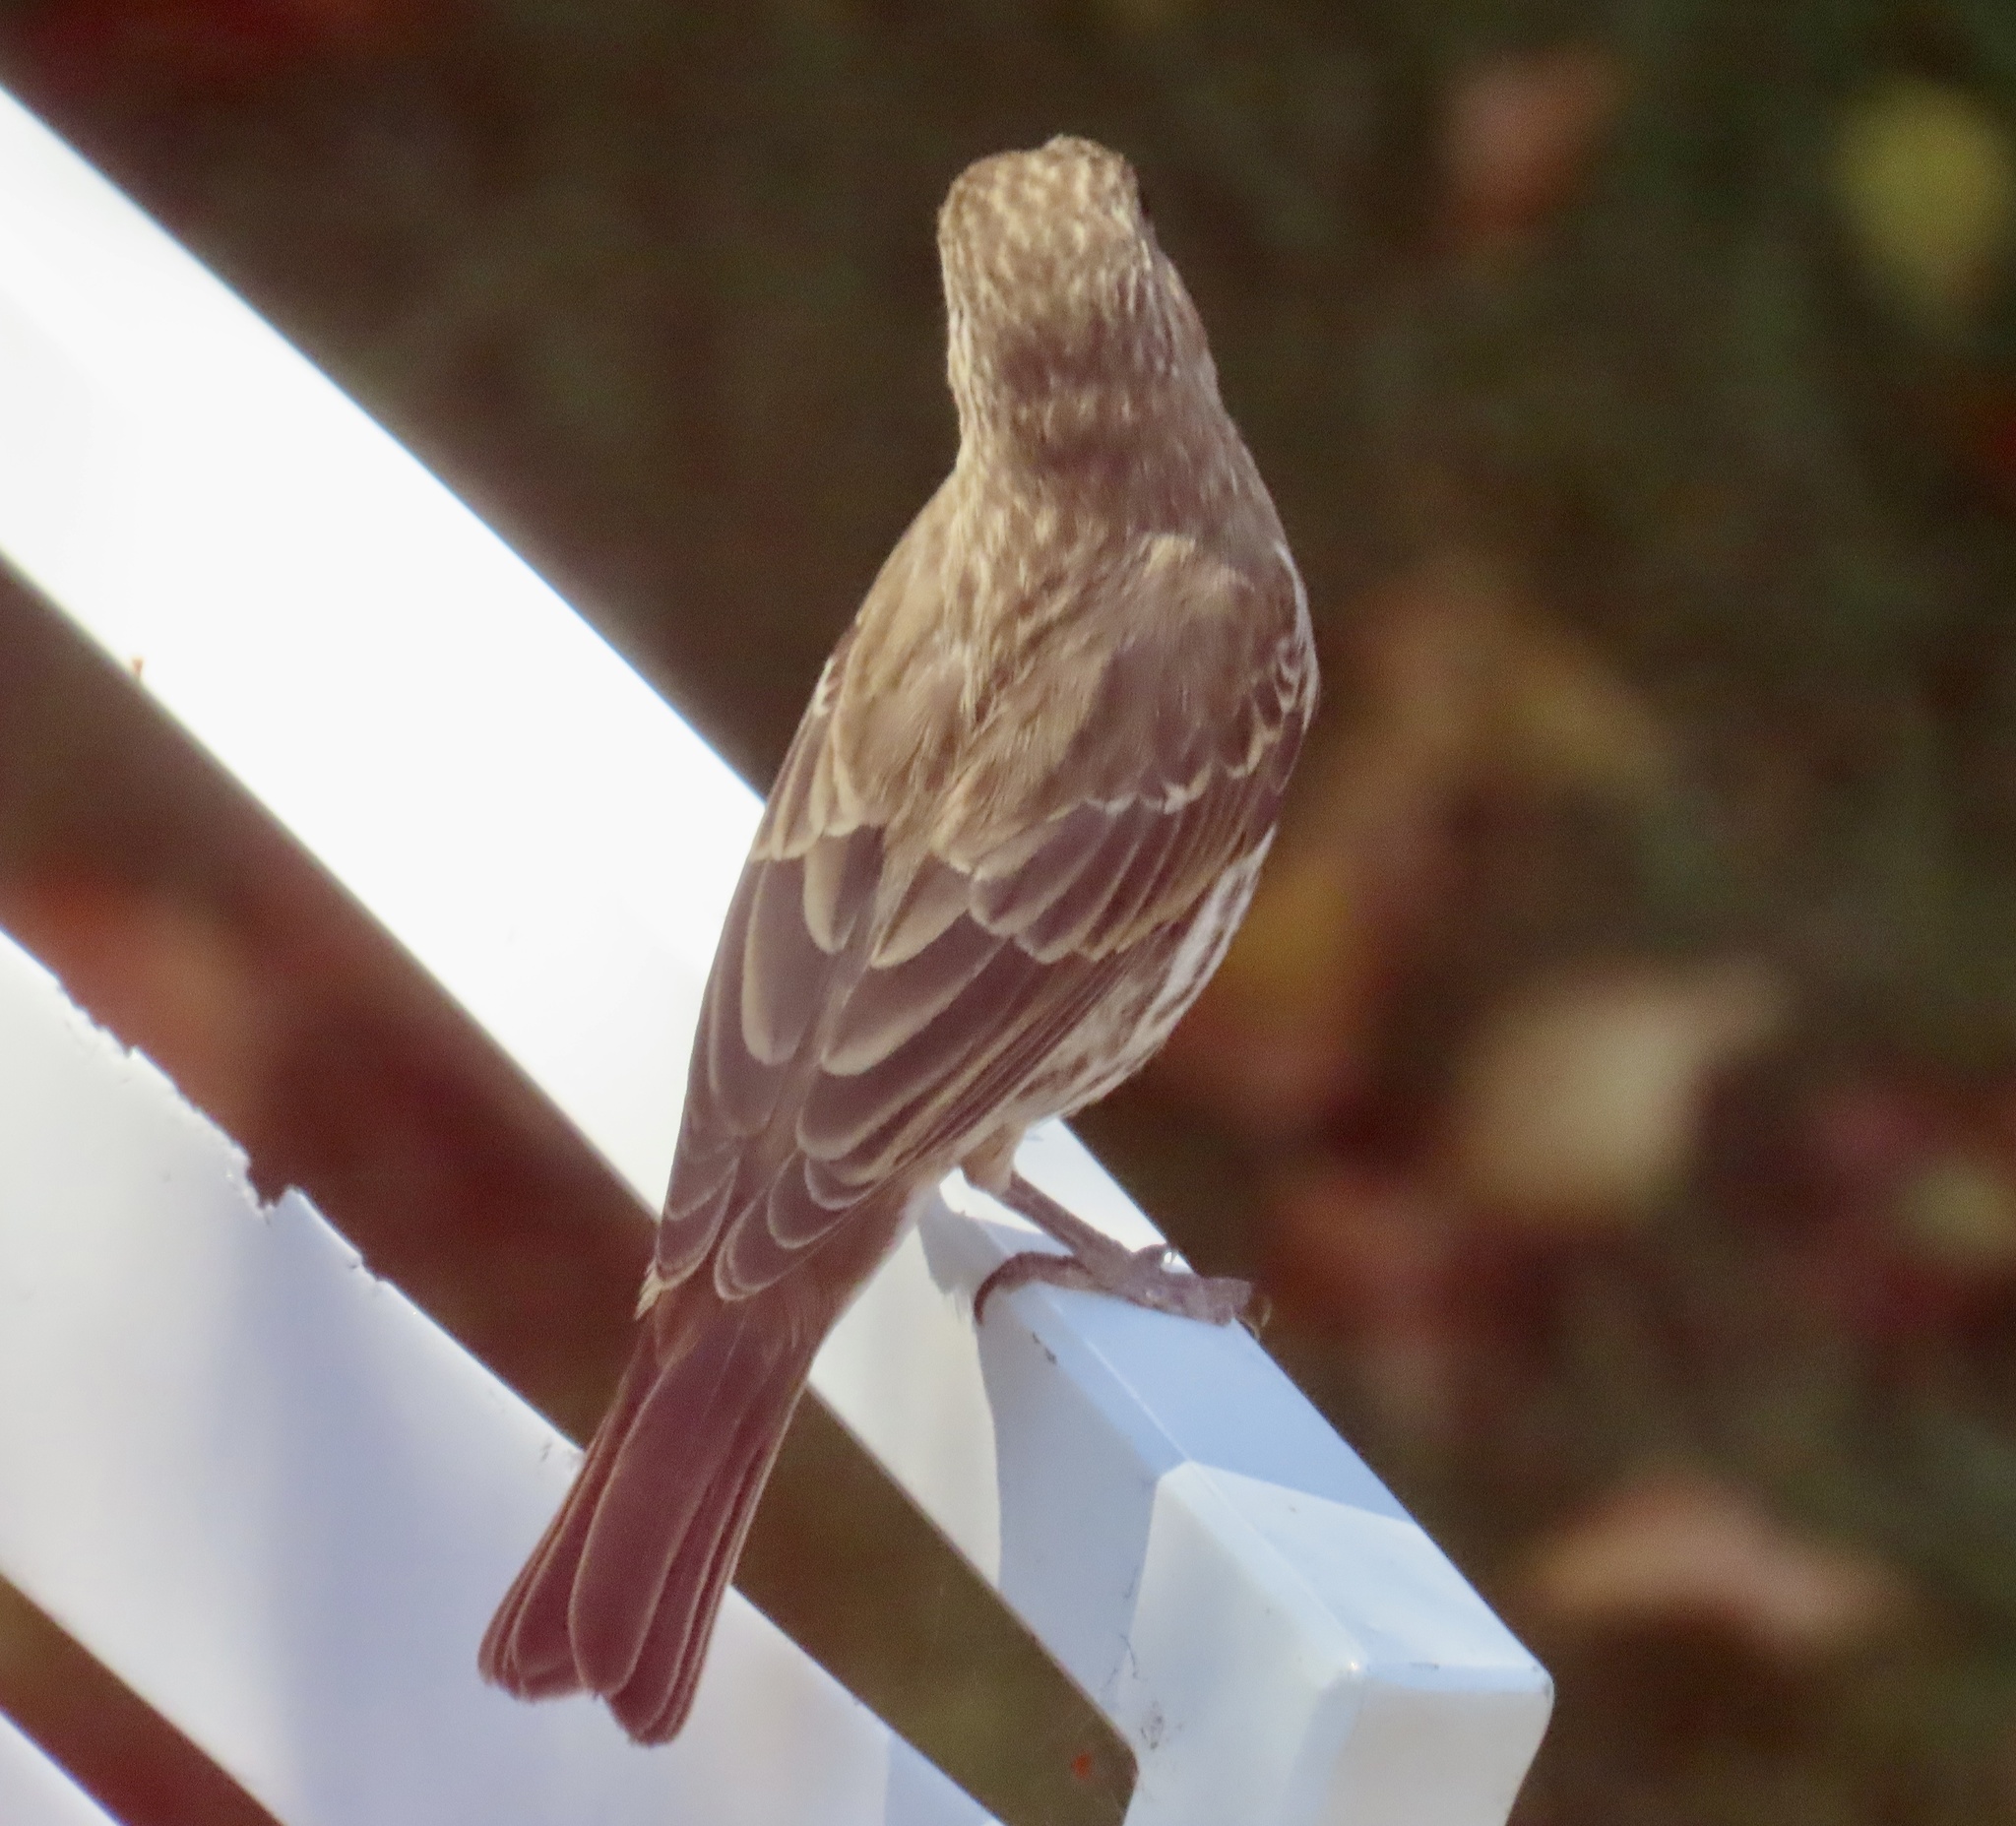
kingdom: Animalia
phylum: Chordata
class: Aves
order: Passeriformes
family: Fringillidae
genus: Haemorhous
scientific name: Haemorhous mexicanus
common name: House finch
